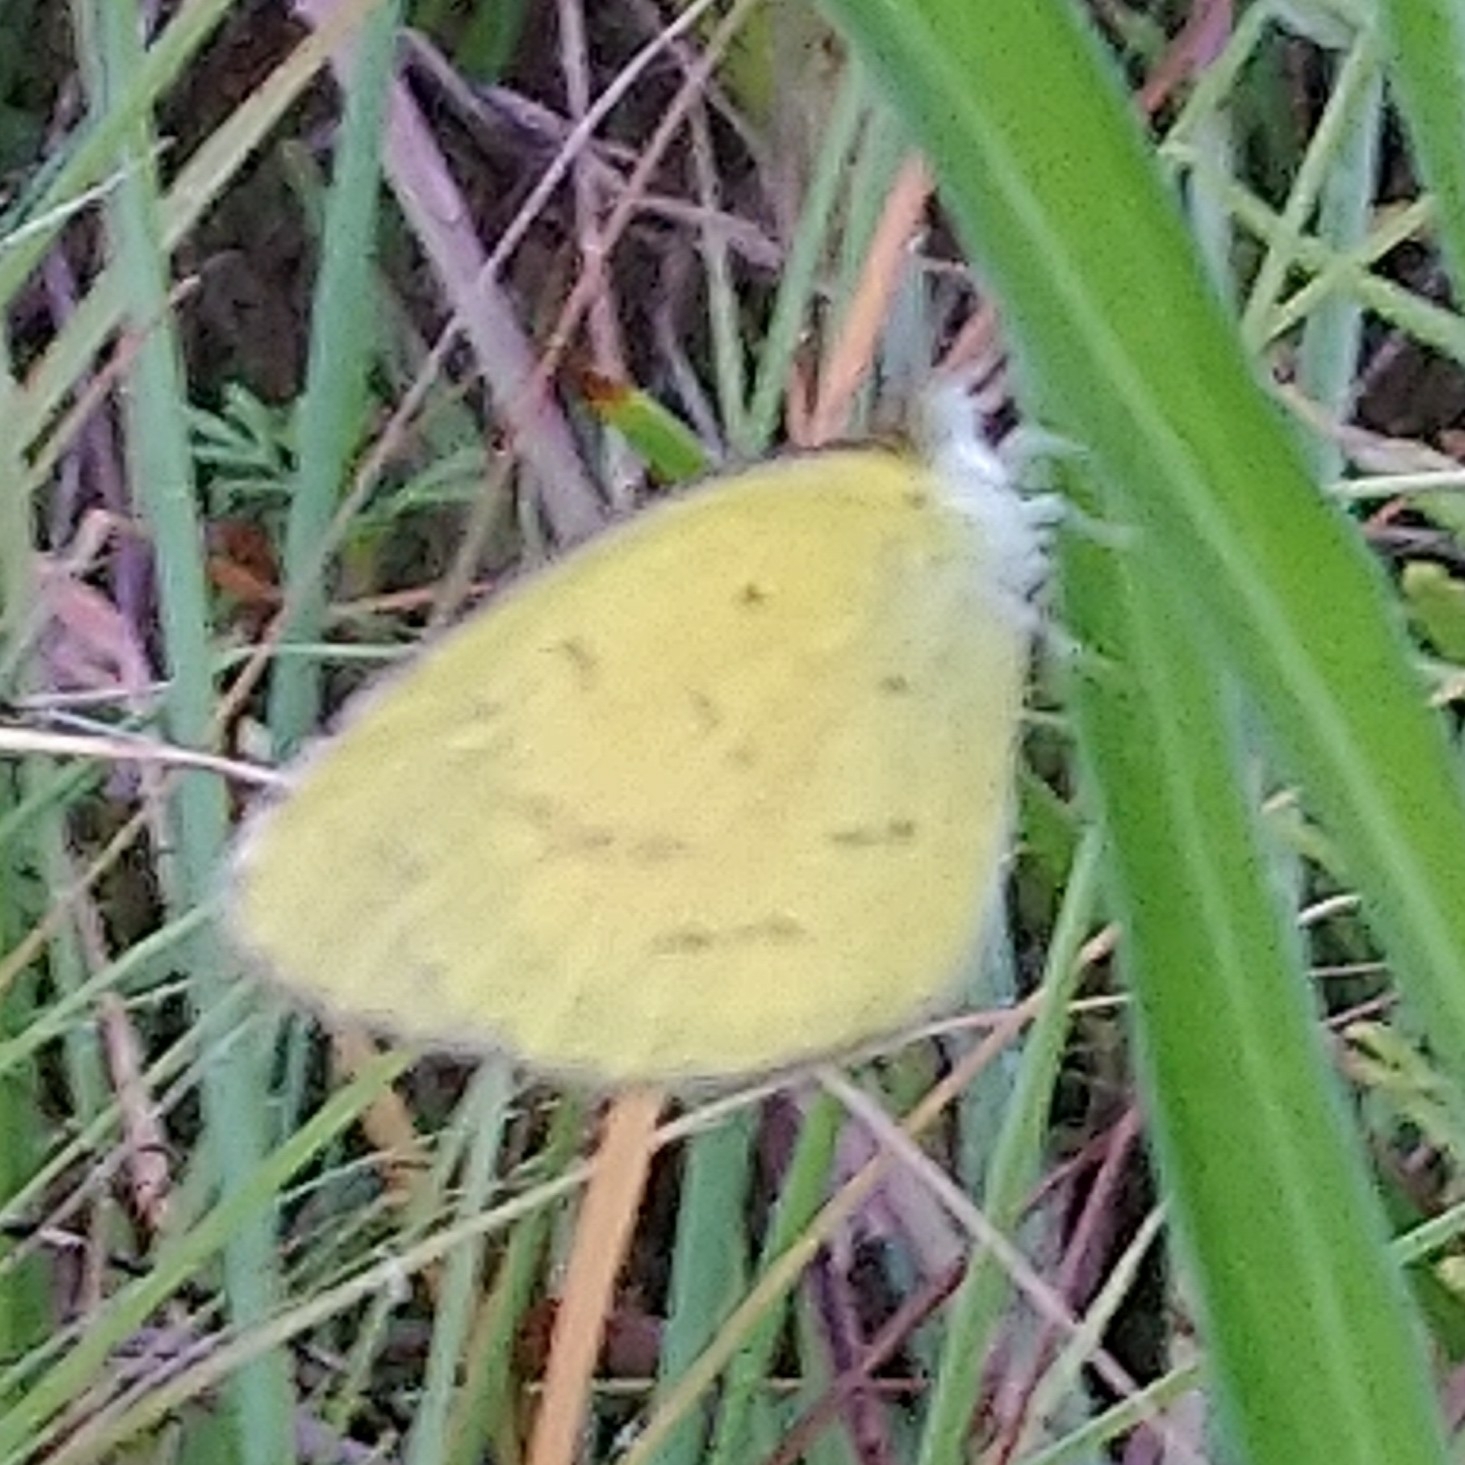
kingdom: Animalia
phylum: Arthropoda
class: Insecta
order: Lepidoptera
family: Pieridae
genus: Eurema
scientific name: Eurema brigitta
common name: Small grass yellow
